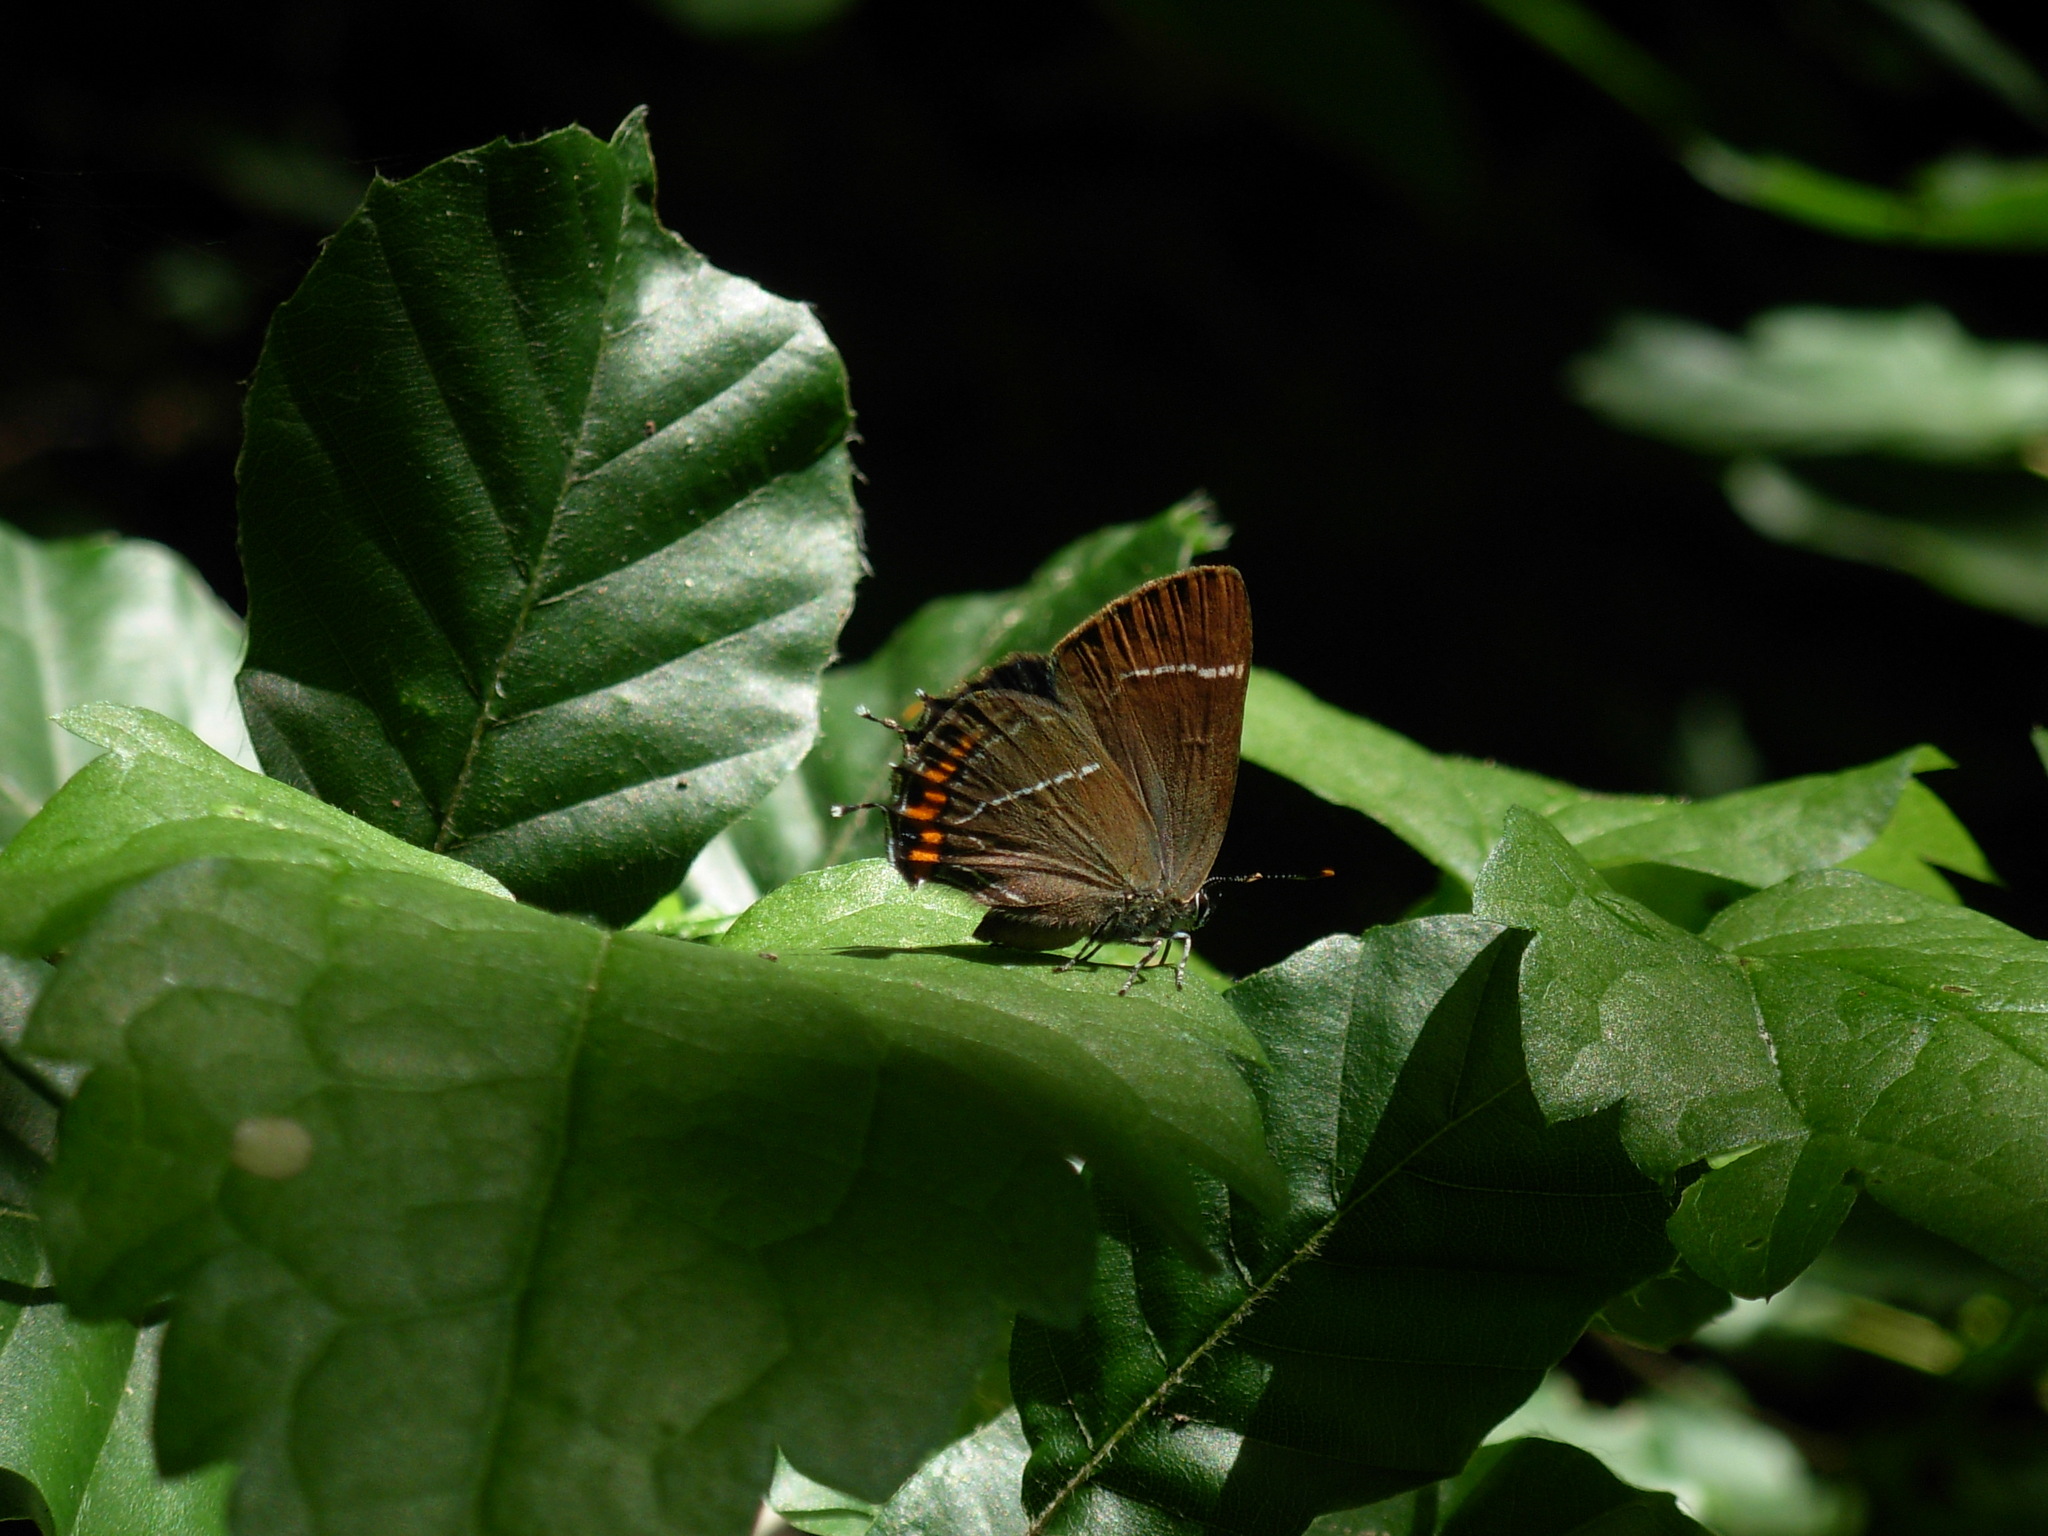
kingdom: Animalia
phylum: Arthropoda
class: Insecta
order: Lepidoptera
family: Lycaenidae
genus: Satyrium
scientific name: Satyrium w-album
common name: White-letter hairstreak
